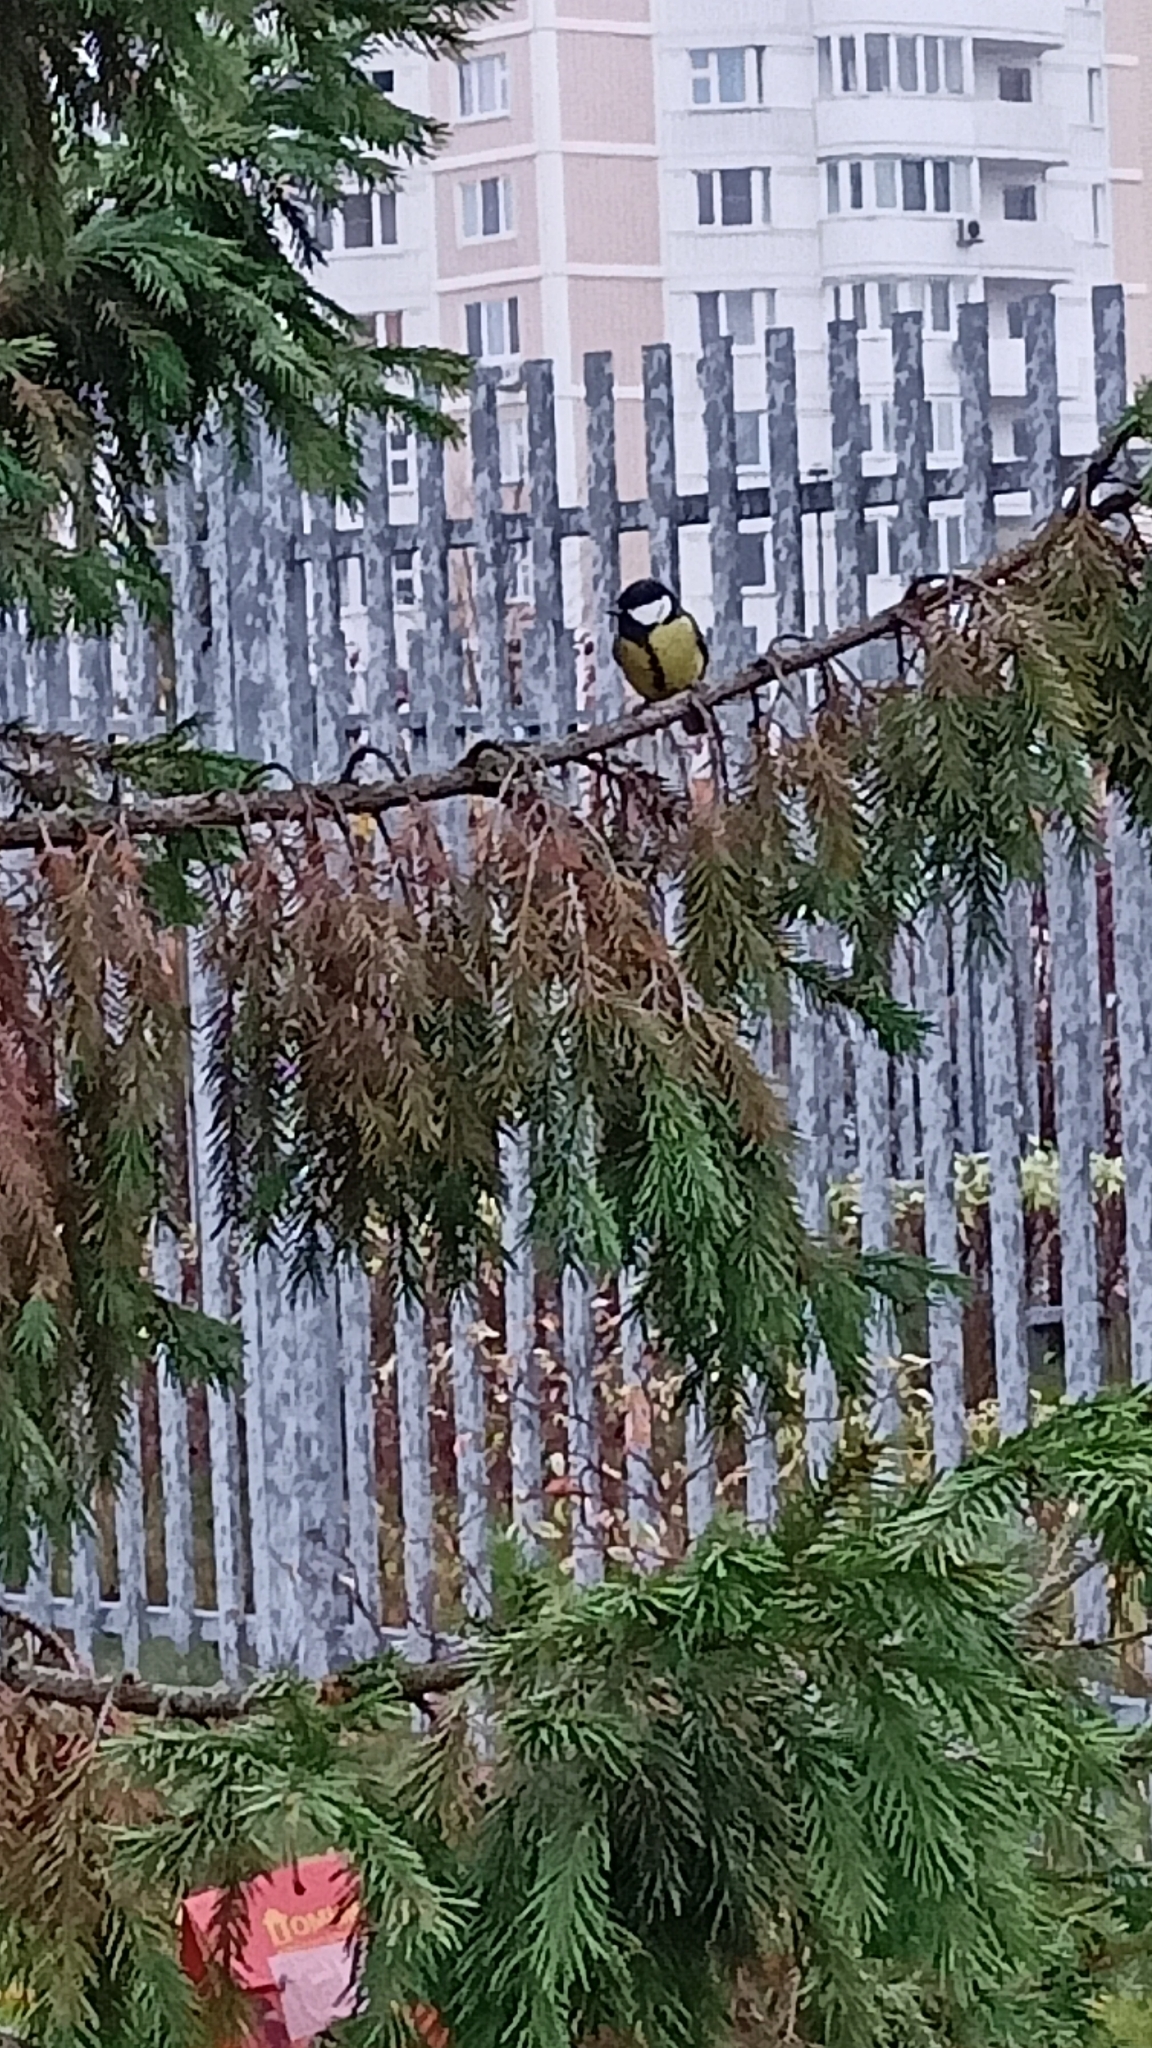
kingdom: Animalia
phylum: Chordata
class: Aves
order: Passeriformes
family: Paridae
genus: Parus
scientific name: Parus major
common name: Great tit
